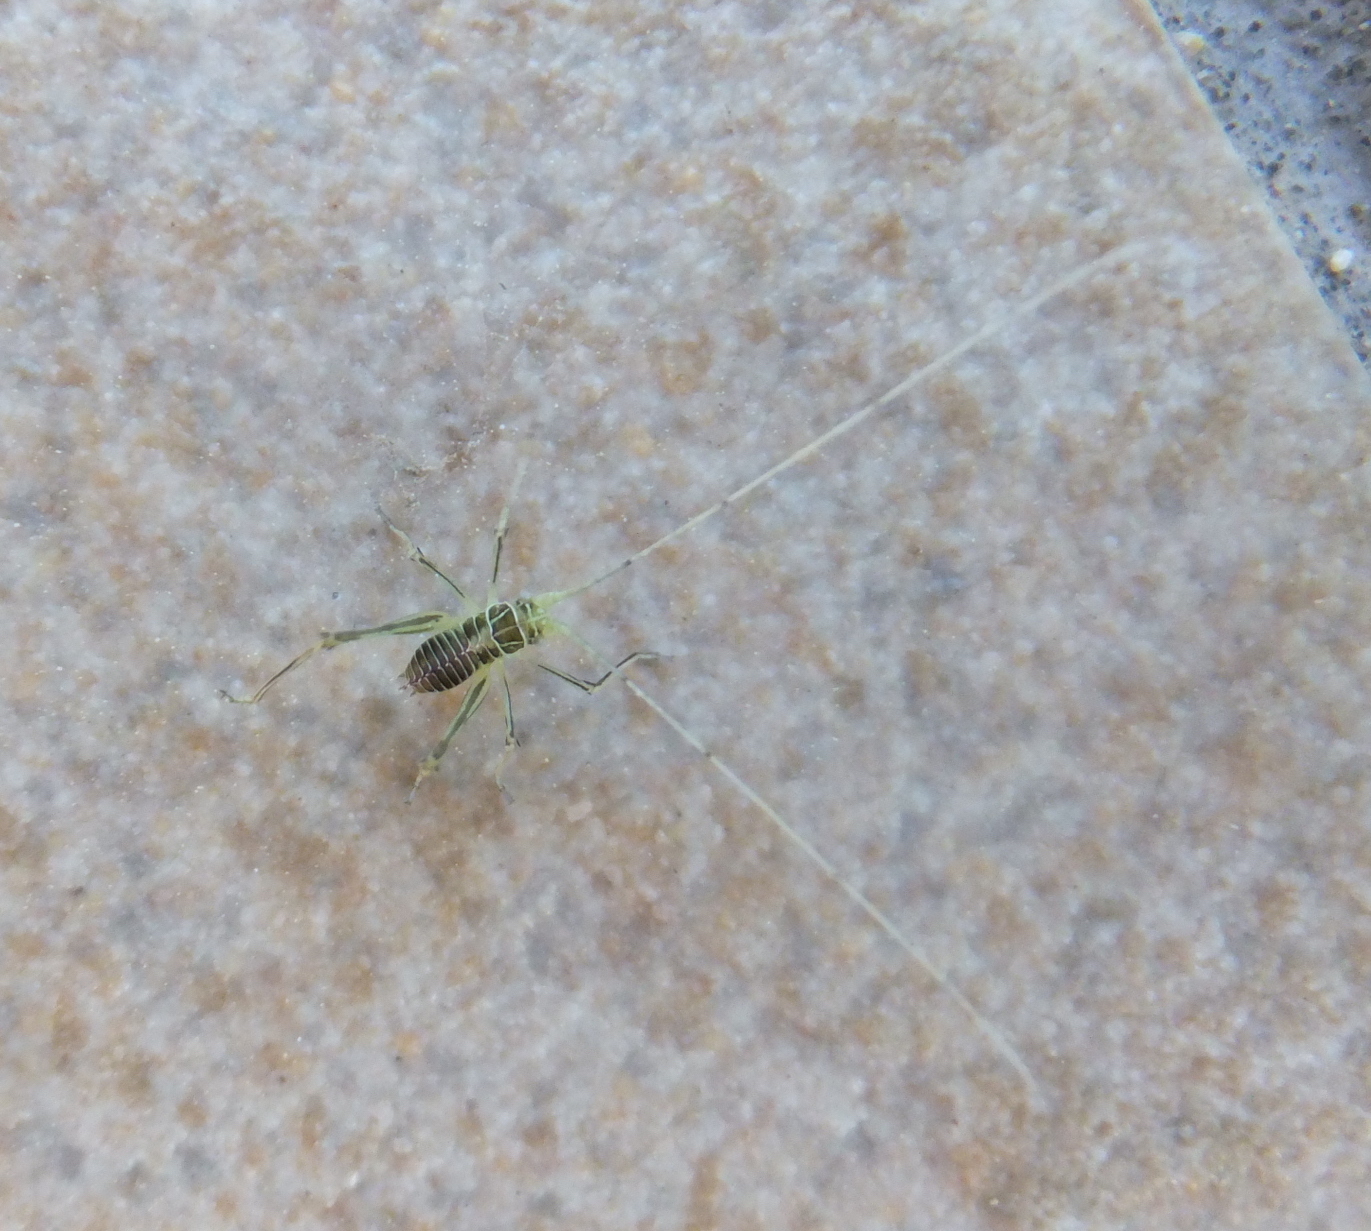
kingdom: Animalia
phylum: Arthropoda
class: Insecta
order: Orthoptera
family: Tettigoniidae
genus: Tylopsis
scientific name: Tylopsis lilifolia
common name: Lily bush-cricket
